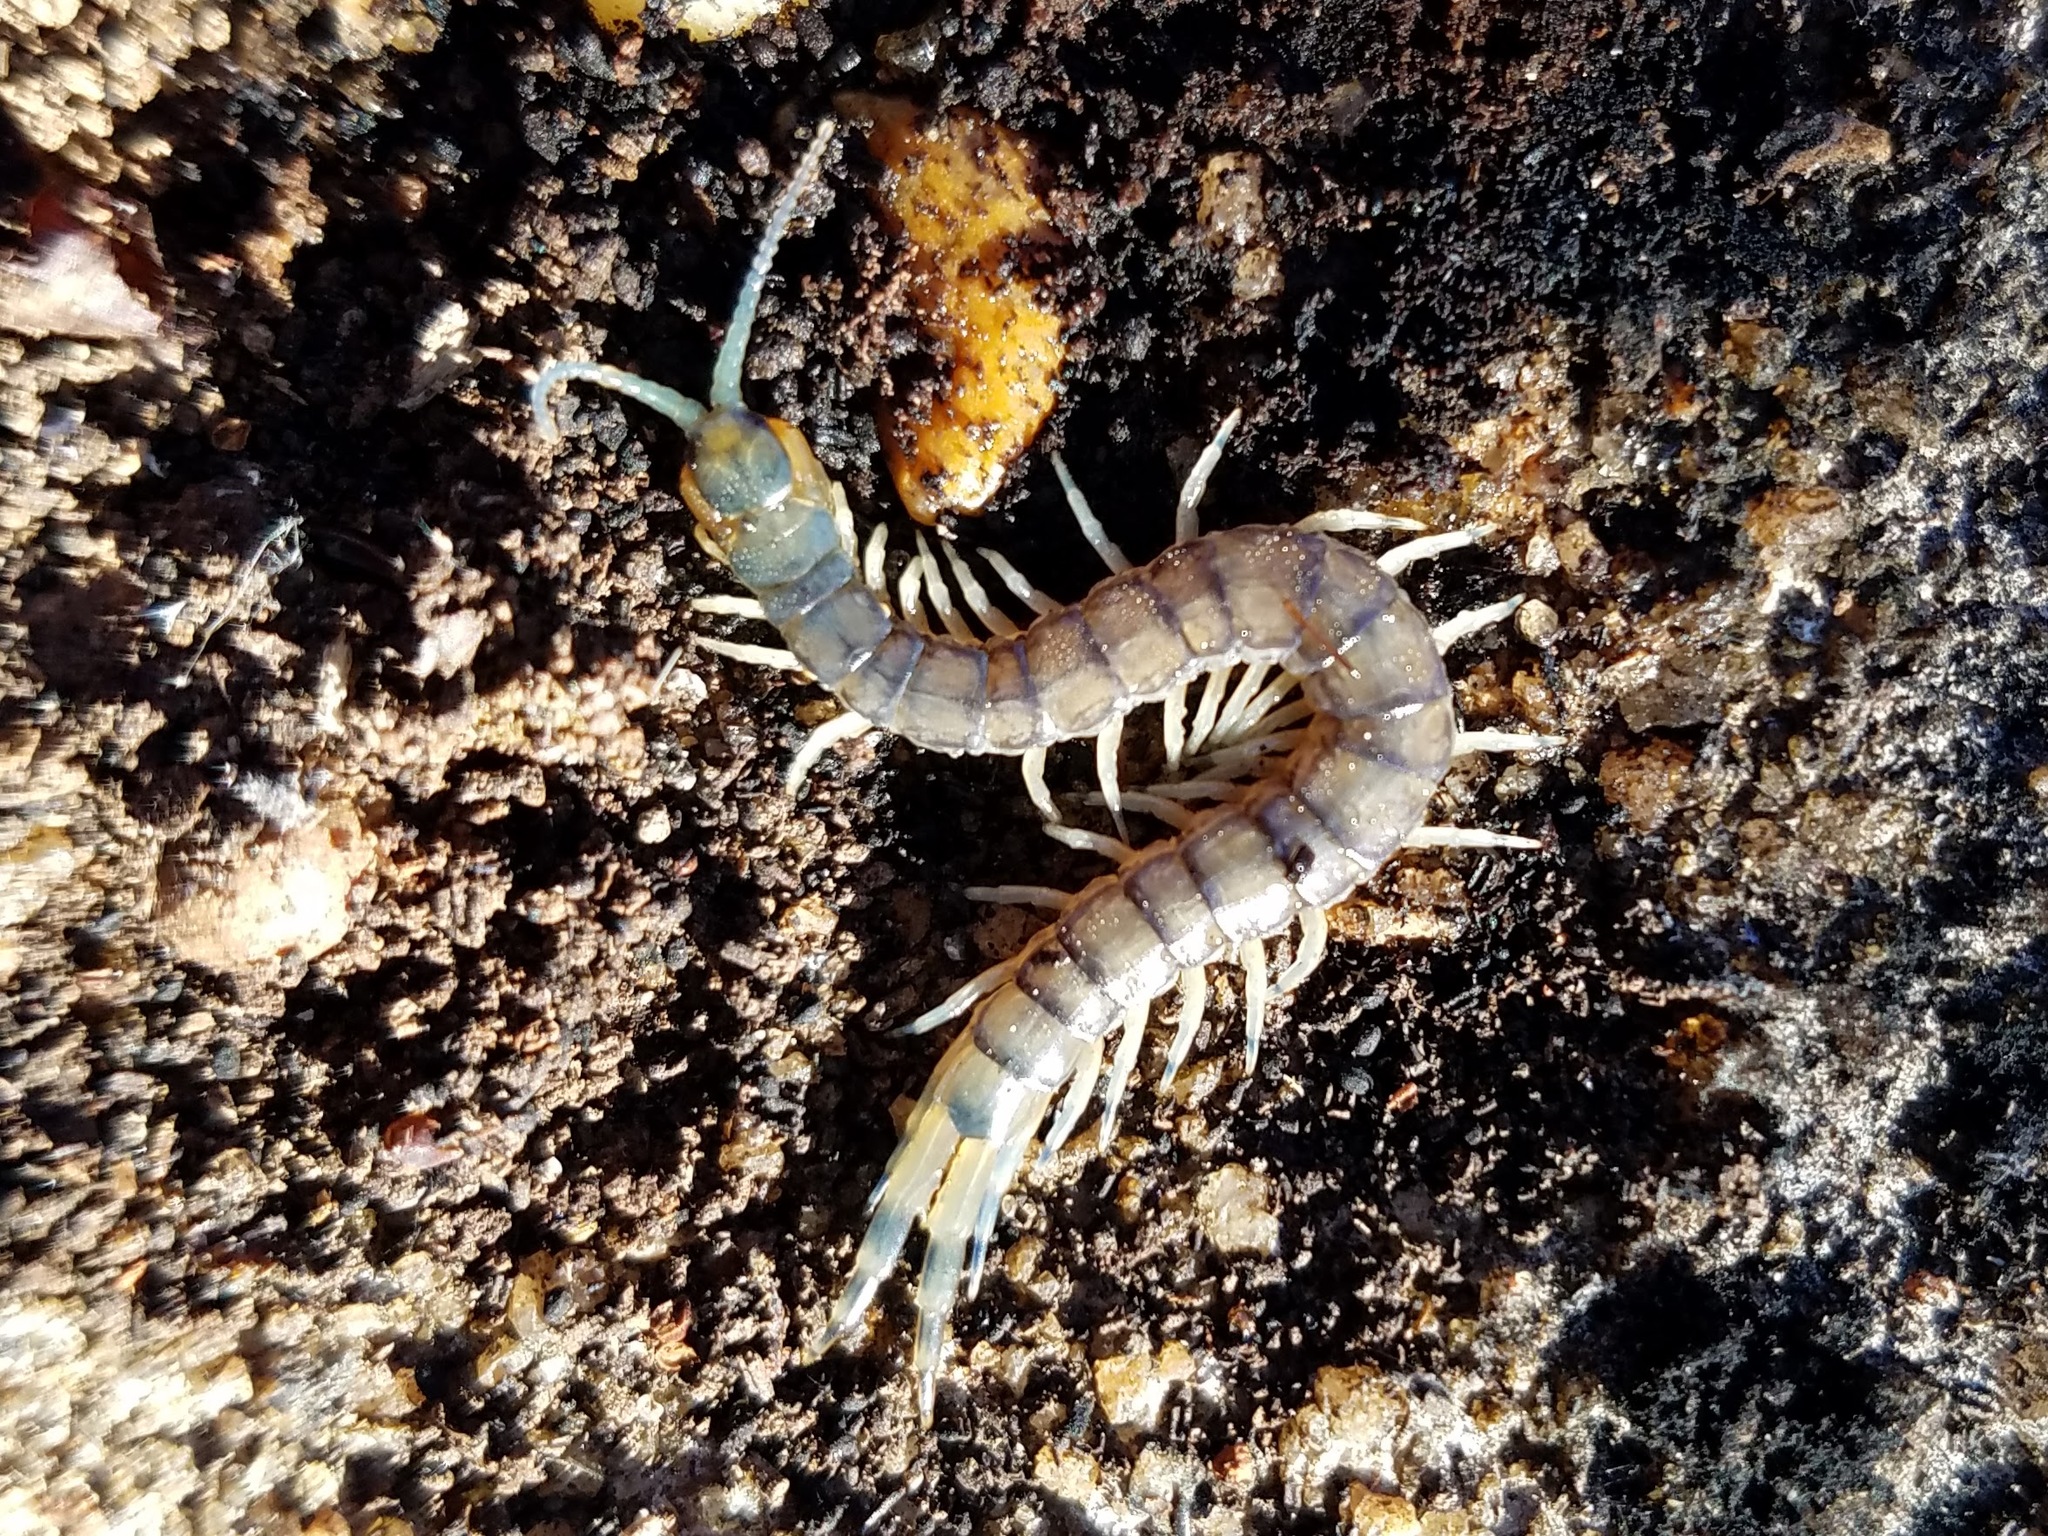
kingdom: Animalia
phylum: Arthropoda
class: Chilopoda
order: Scolopendromorpha
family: Scolopendridae
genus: Hemiscolopendra
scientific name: Hemiscolopendra marginata
